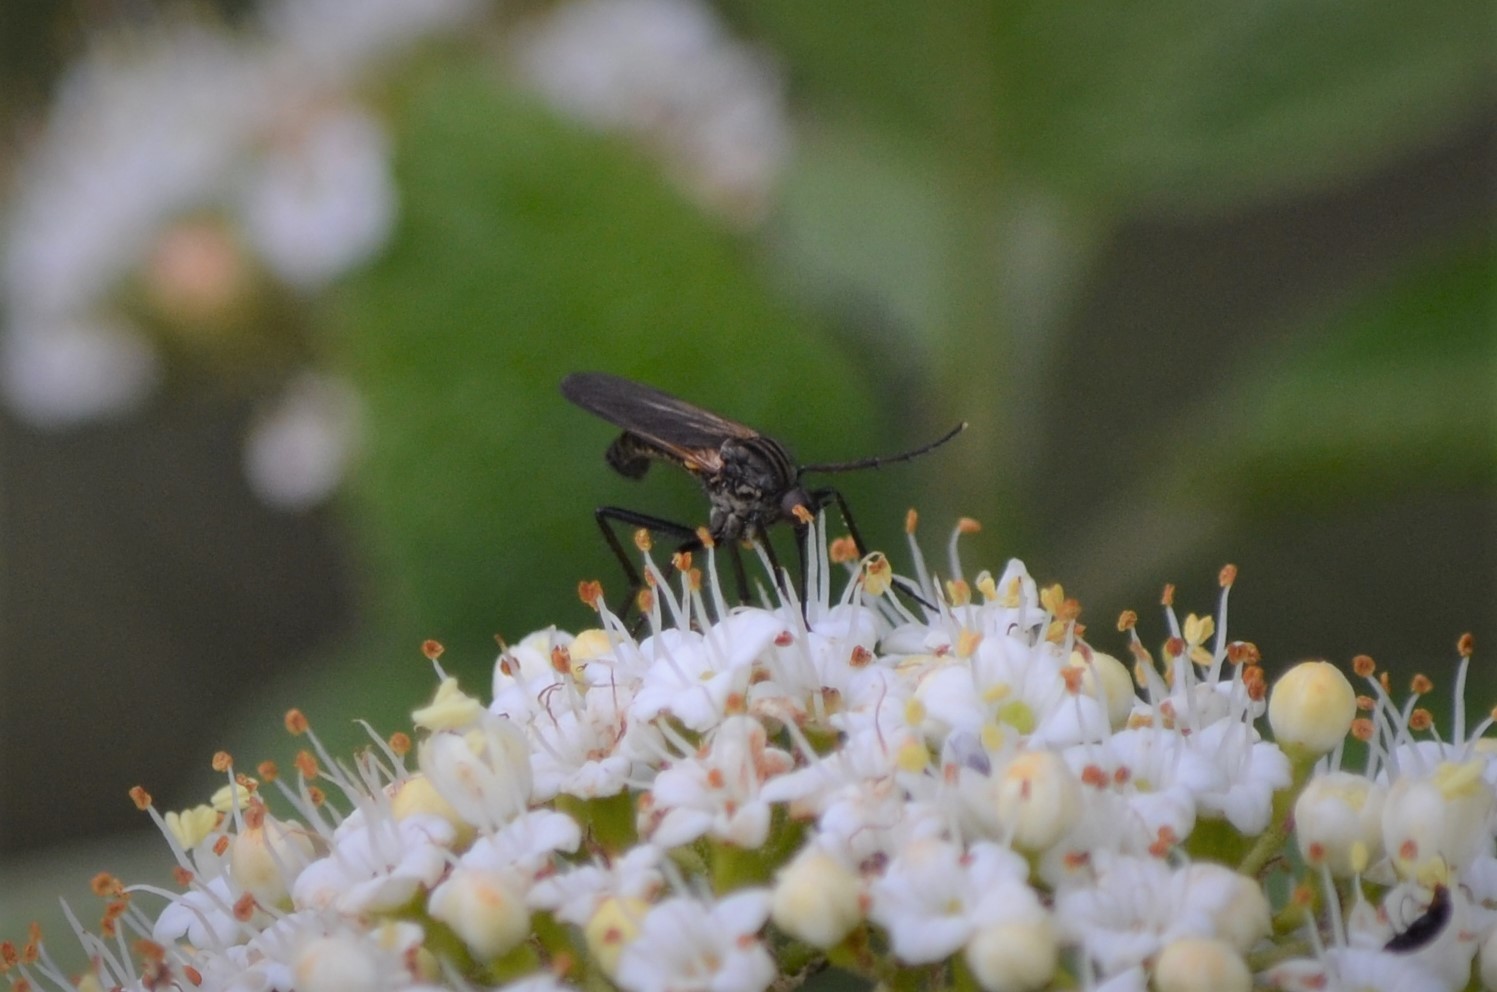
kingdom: Plantae
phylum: Tracheophyta
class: Magnoliopsida
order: Dipsacales
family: Viburnaceae
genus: Viburnum
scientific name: Viburnum lantana
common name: Wayfaring tree
